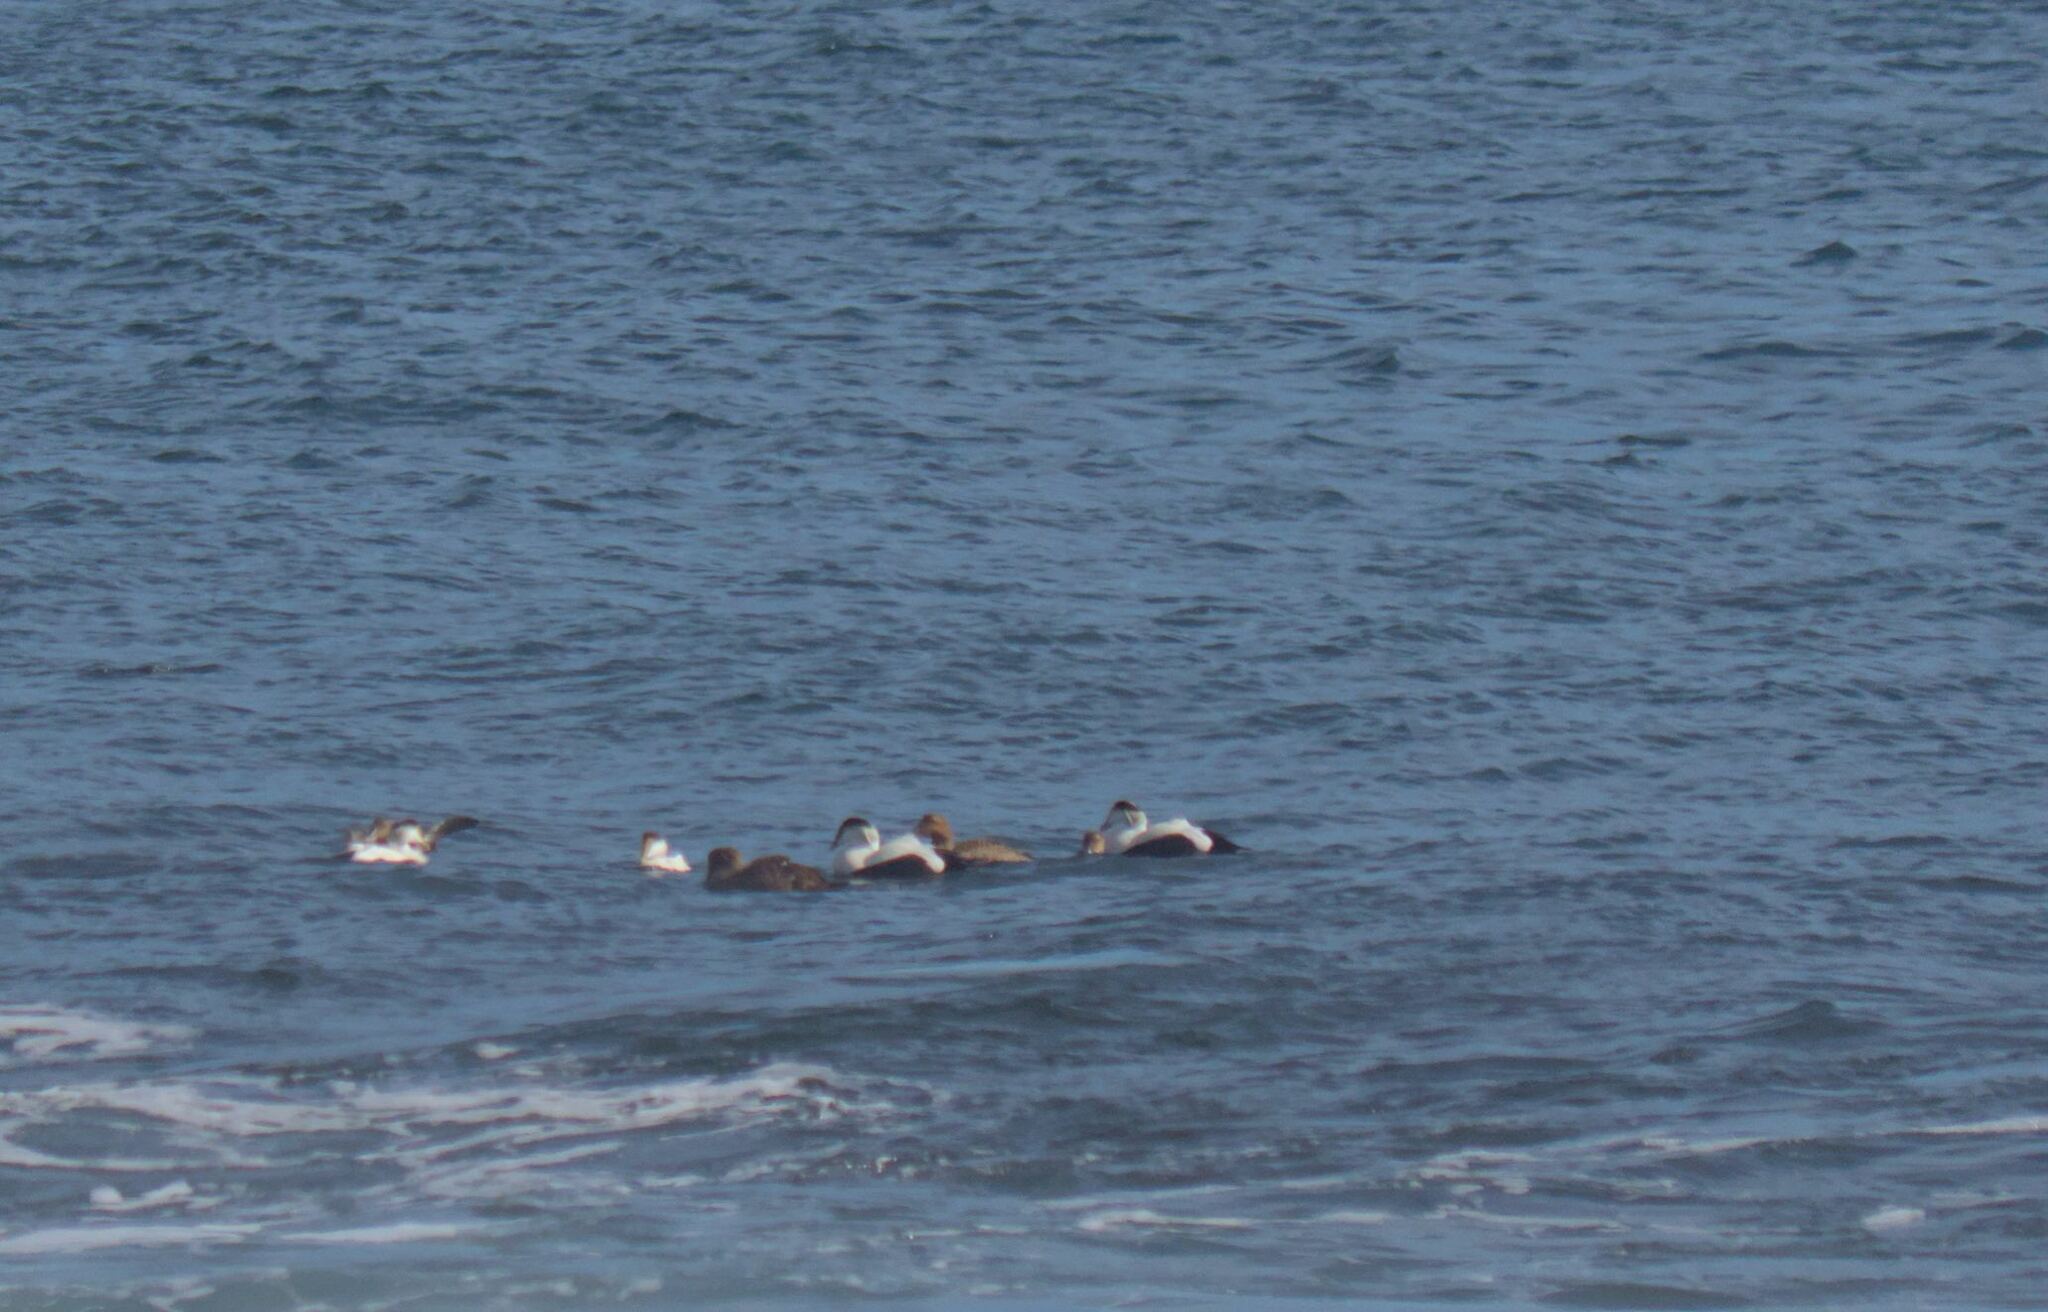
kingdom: Animalia
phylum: Chordata
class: Aves
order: Anseriformes
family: Anatidae
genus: Somateria
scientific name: Somateria mollissima
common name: Common eider
